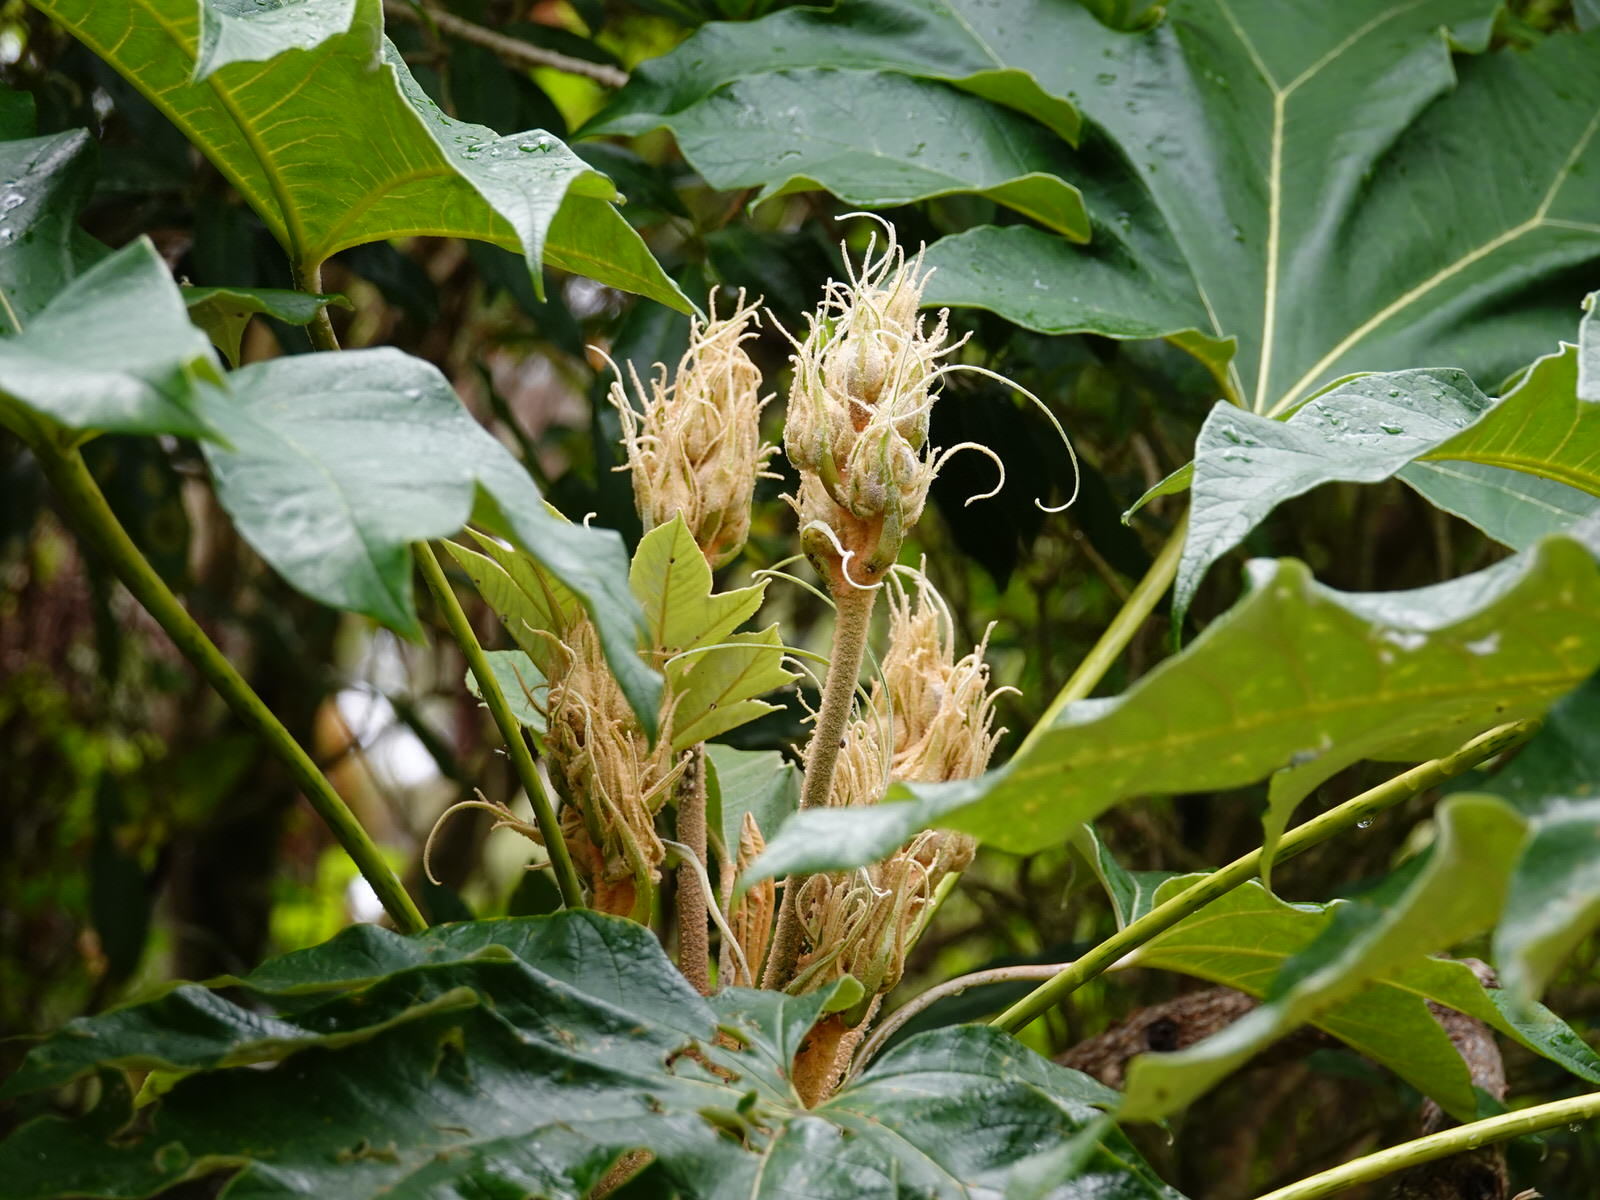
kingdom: Plantae
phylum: Tracheophyta
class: Magnoliopsida
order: Apiales
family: Araliaceae
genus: Tetrapanax
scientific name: Tetrapanax papyrifer
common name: Rice-paper plant
